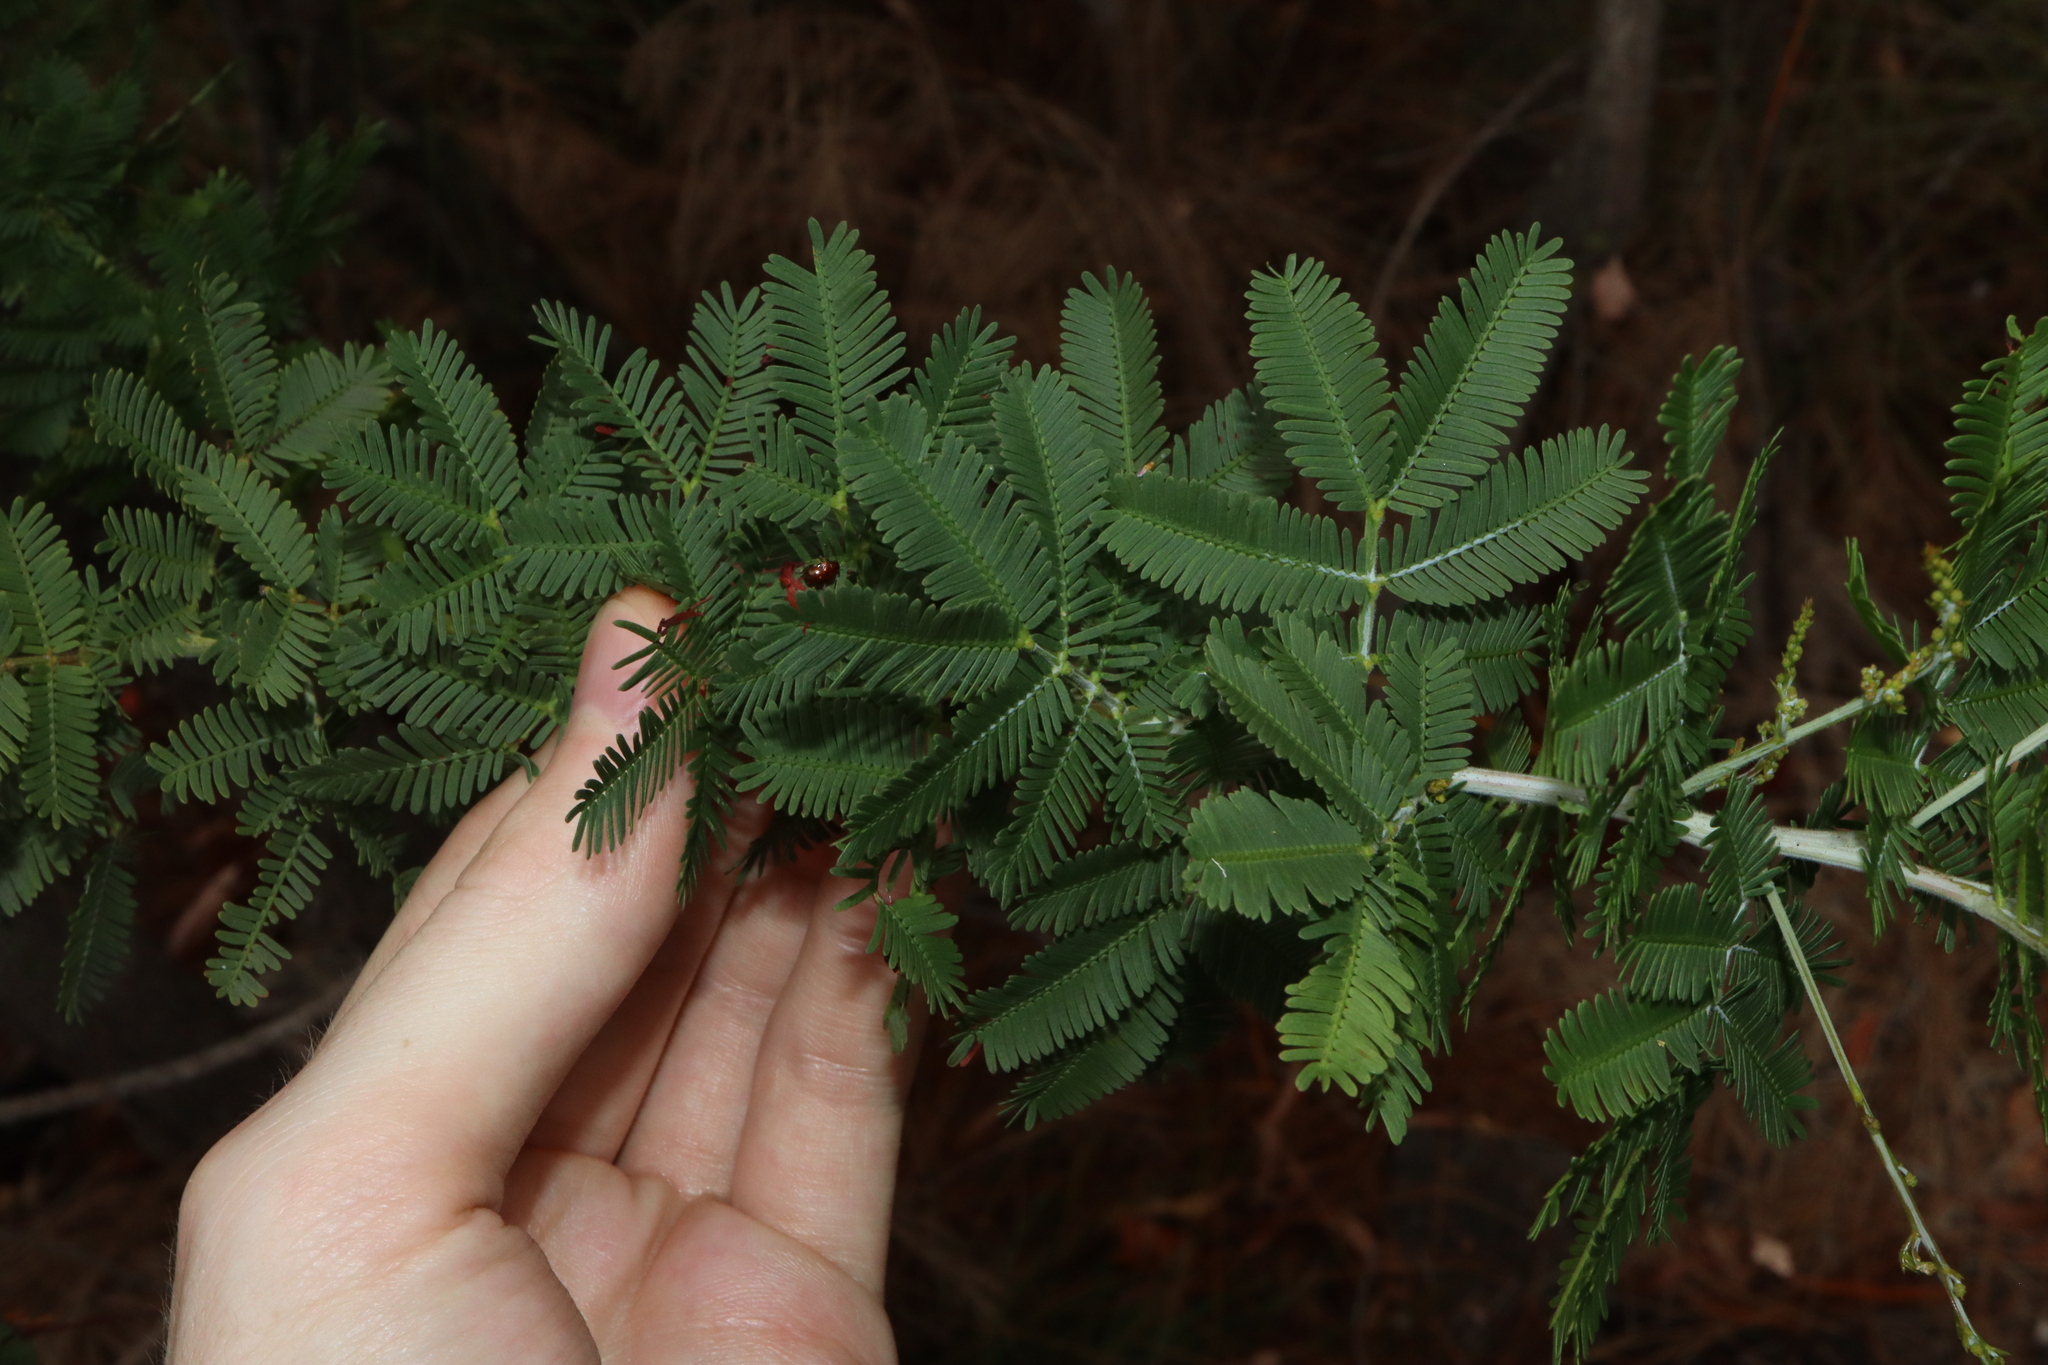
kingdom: Plantae
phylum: Tracheophyta
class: Magnoliopsida
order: Fabales
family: Fabaceae
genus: Acacia
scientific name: Acacia baileyana
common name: Cootamundra wattle
